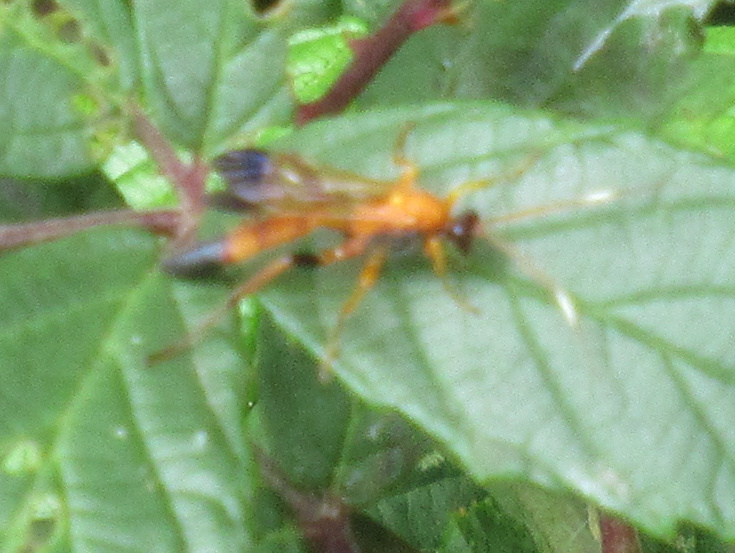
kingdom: Animalia
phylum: Arthropoda
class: Insecta
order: Hymenoptera
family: Ichneumonidae
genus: Ctenochares
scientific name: Ctenochares bicolorus
